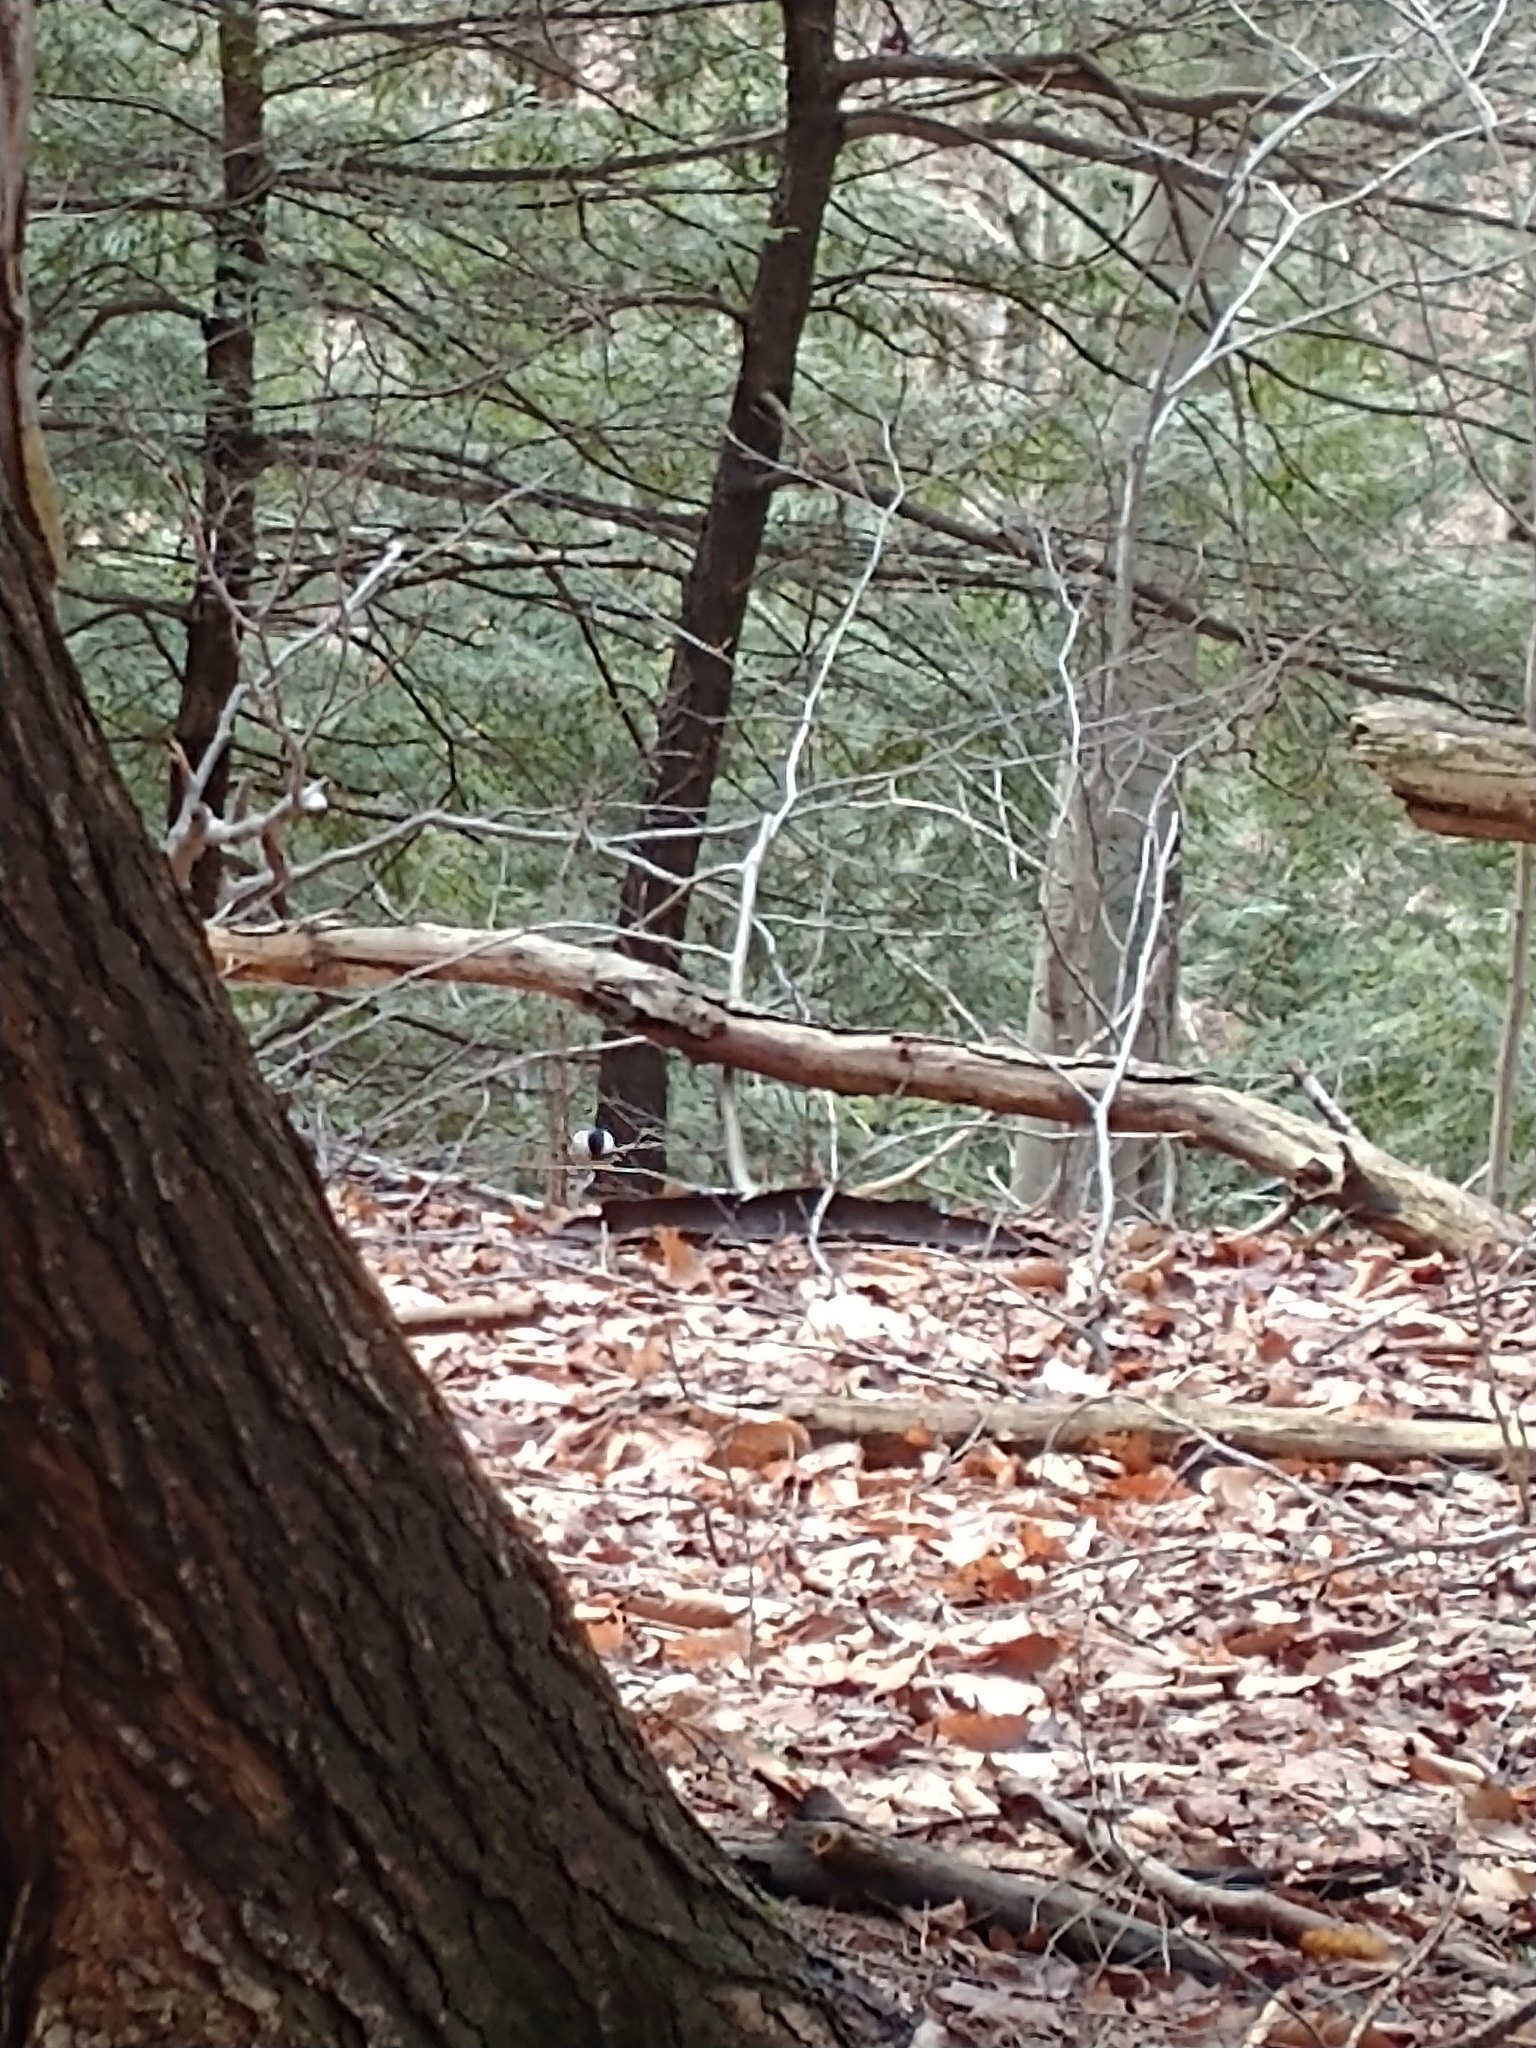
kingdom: Animalia
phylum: Chordata
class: Aves
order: Passeriformes
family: Paridae
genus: Poecile
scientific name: Poecile atricapillus
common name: Black-capped chickadee
